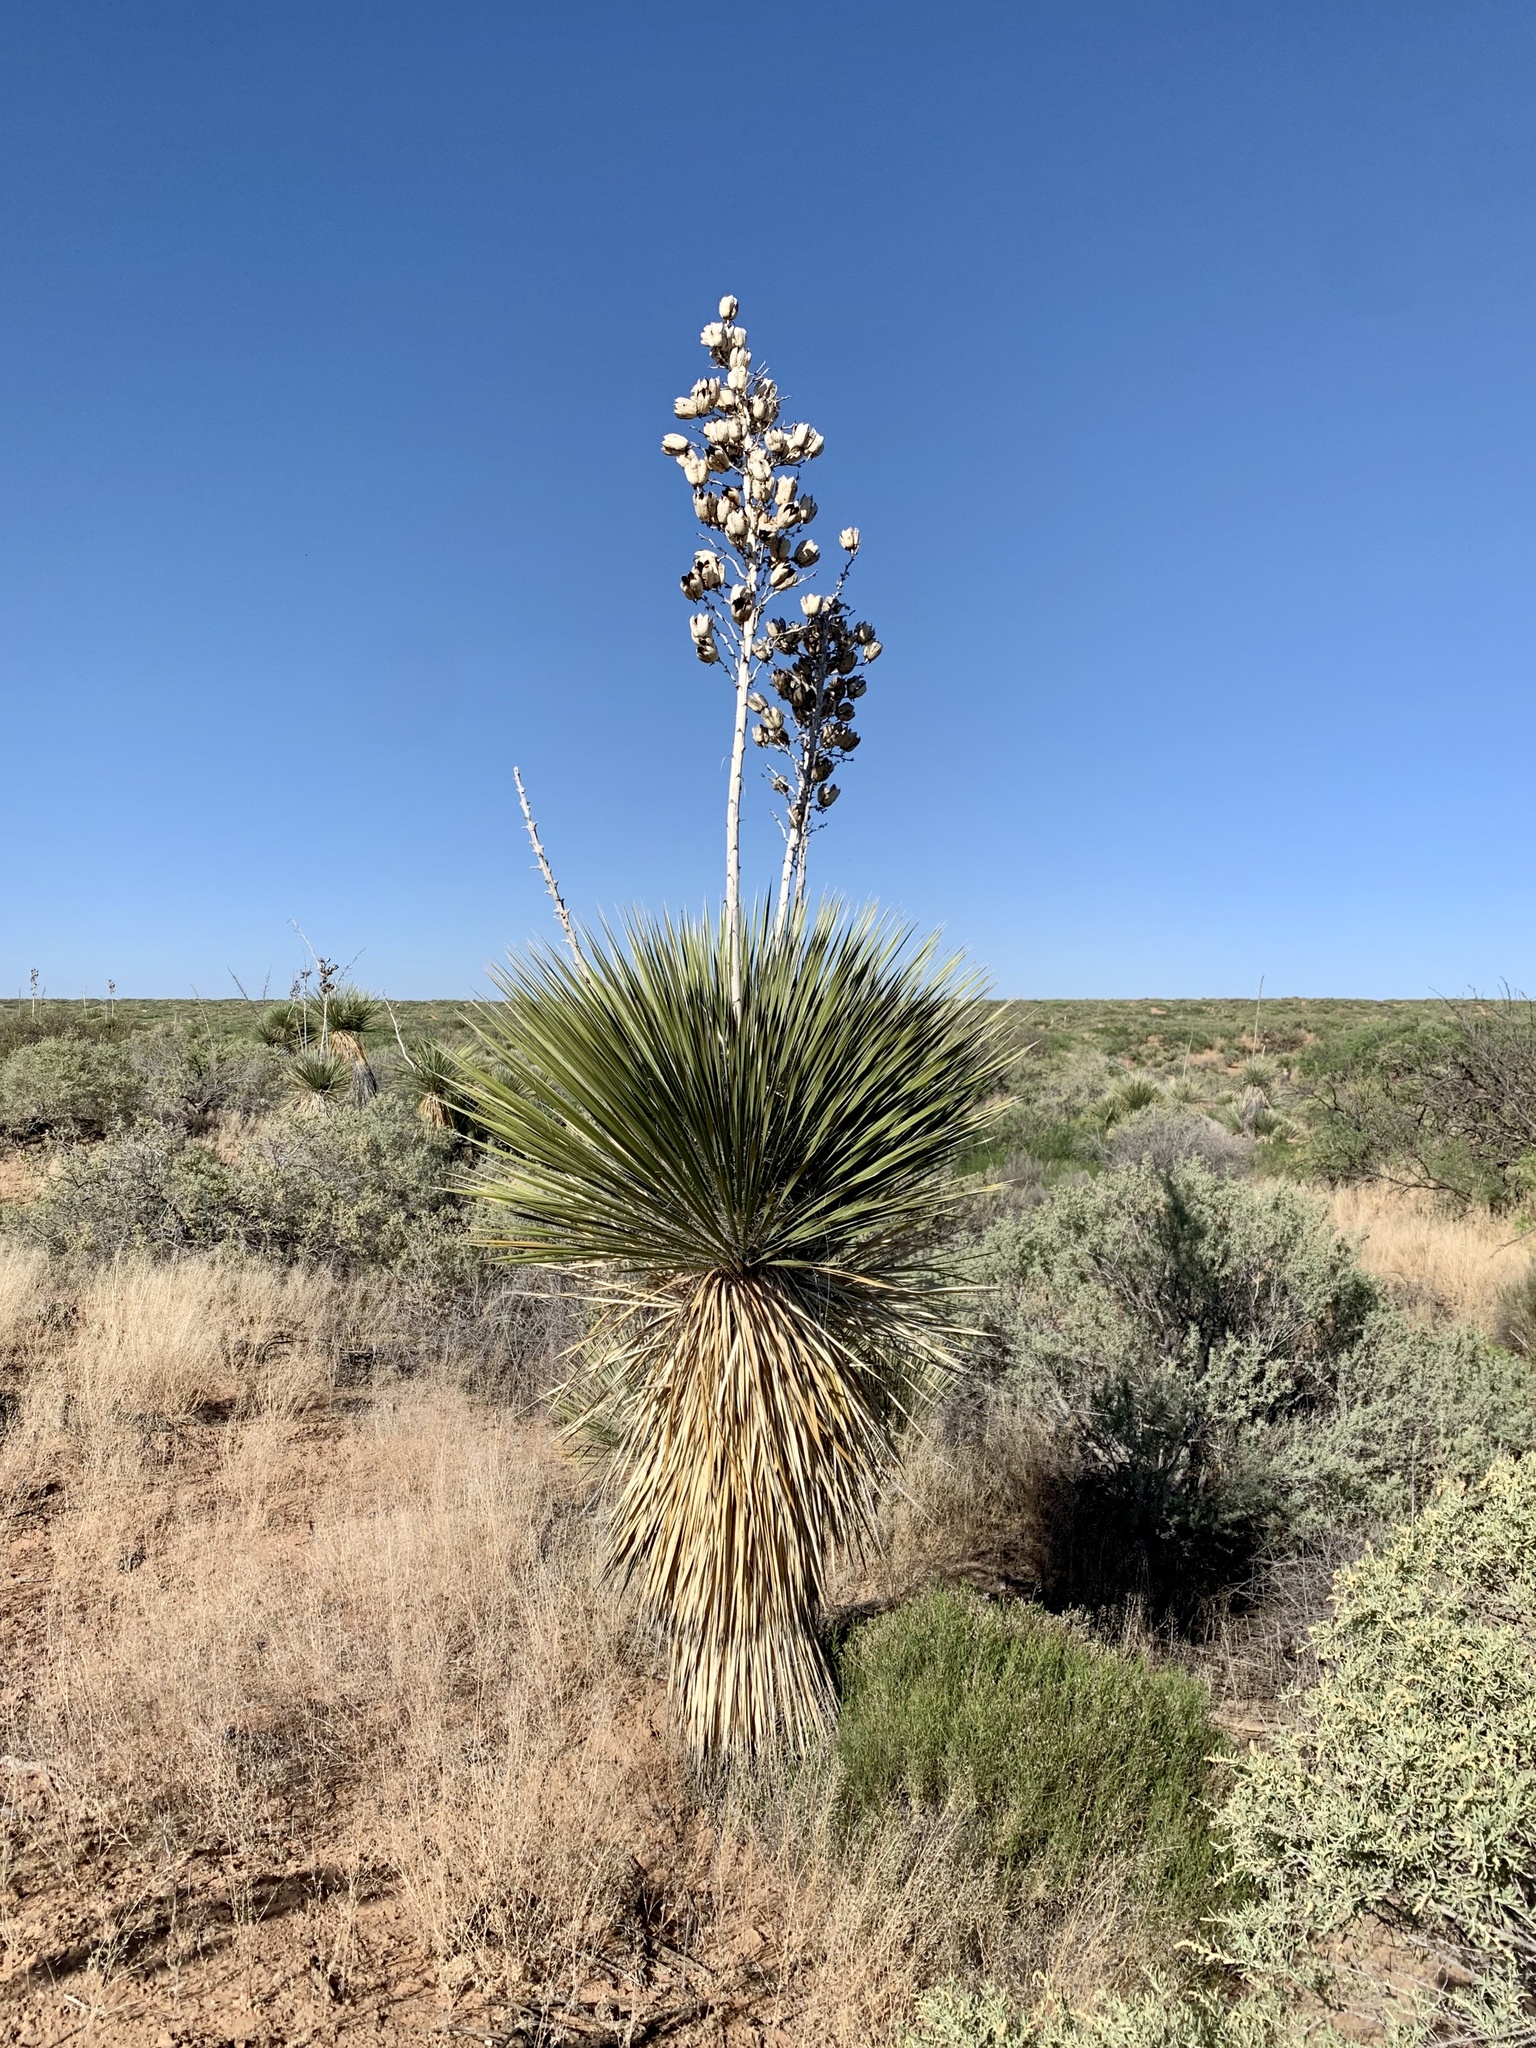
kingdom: Plantae
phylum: Tracheophyta
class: Liliopsida
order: Asparagales
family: Asparagaceae
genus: Yucca
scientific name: Yucca elata
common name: Palmella
